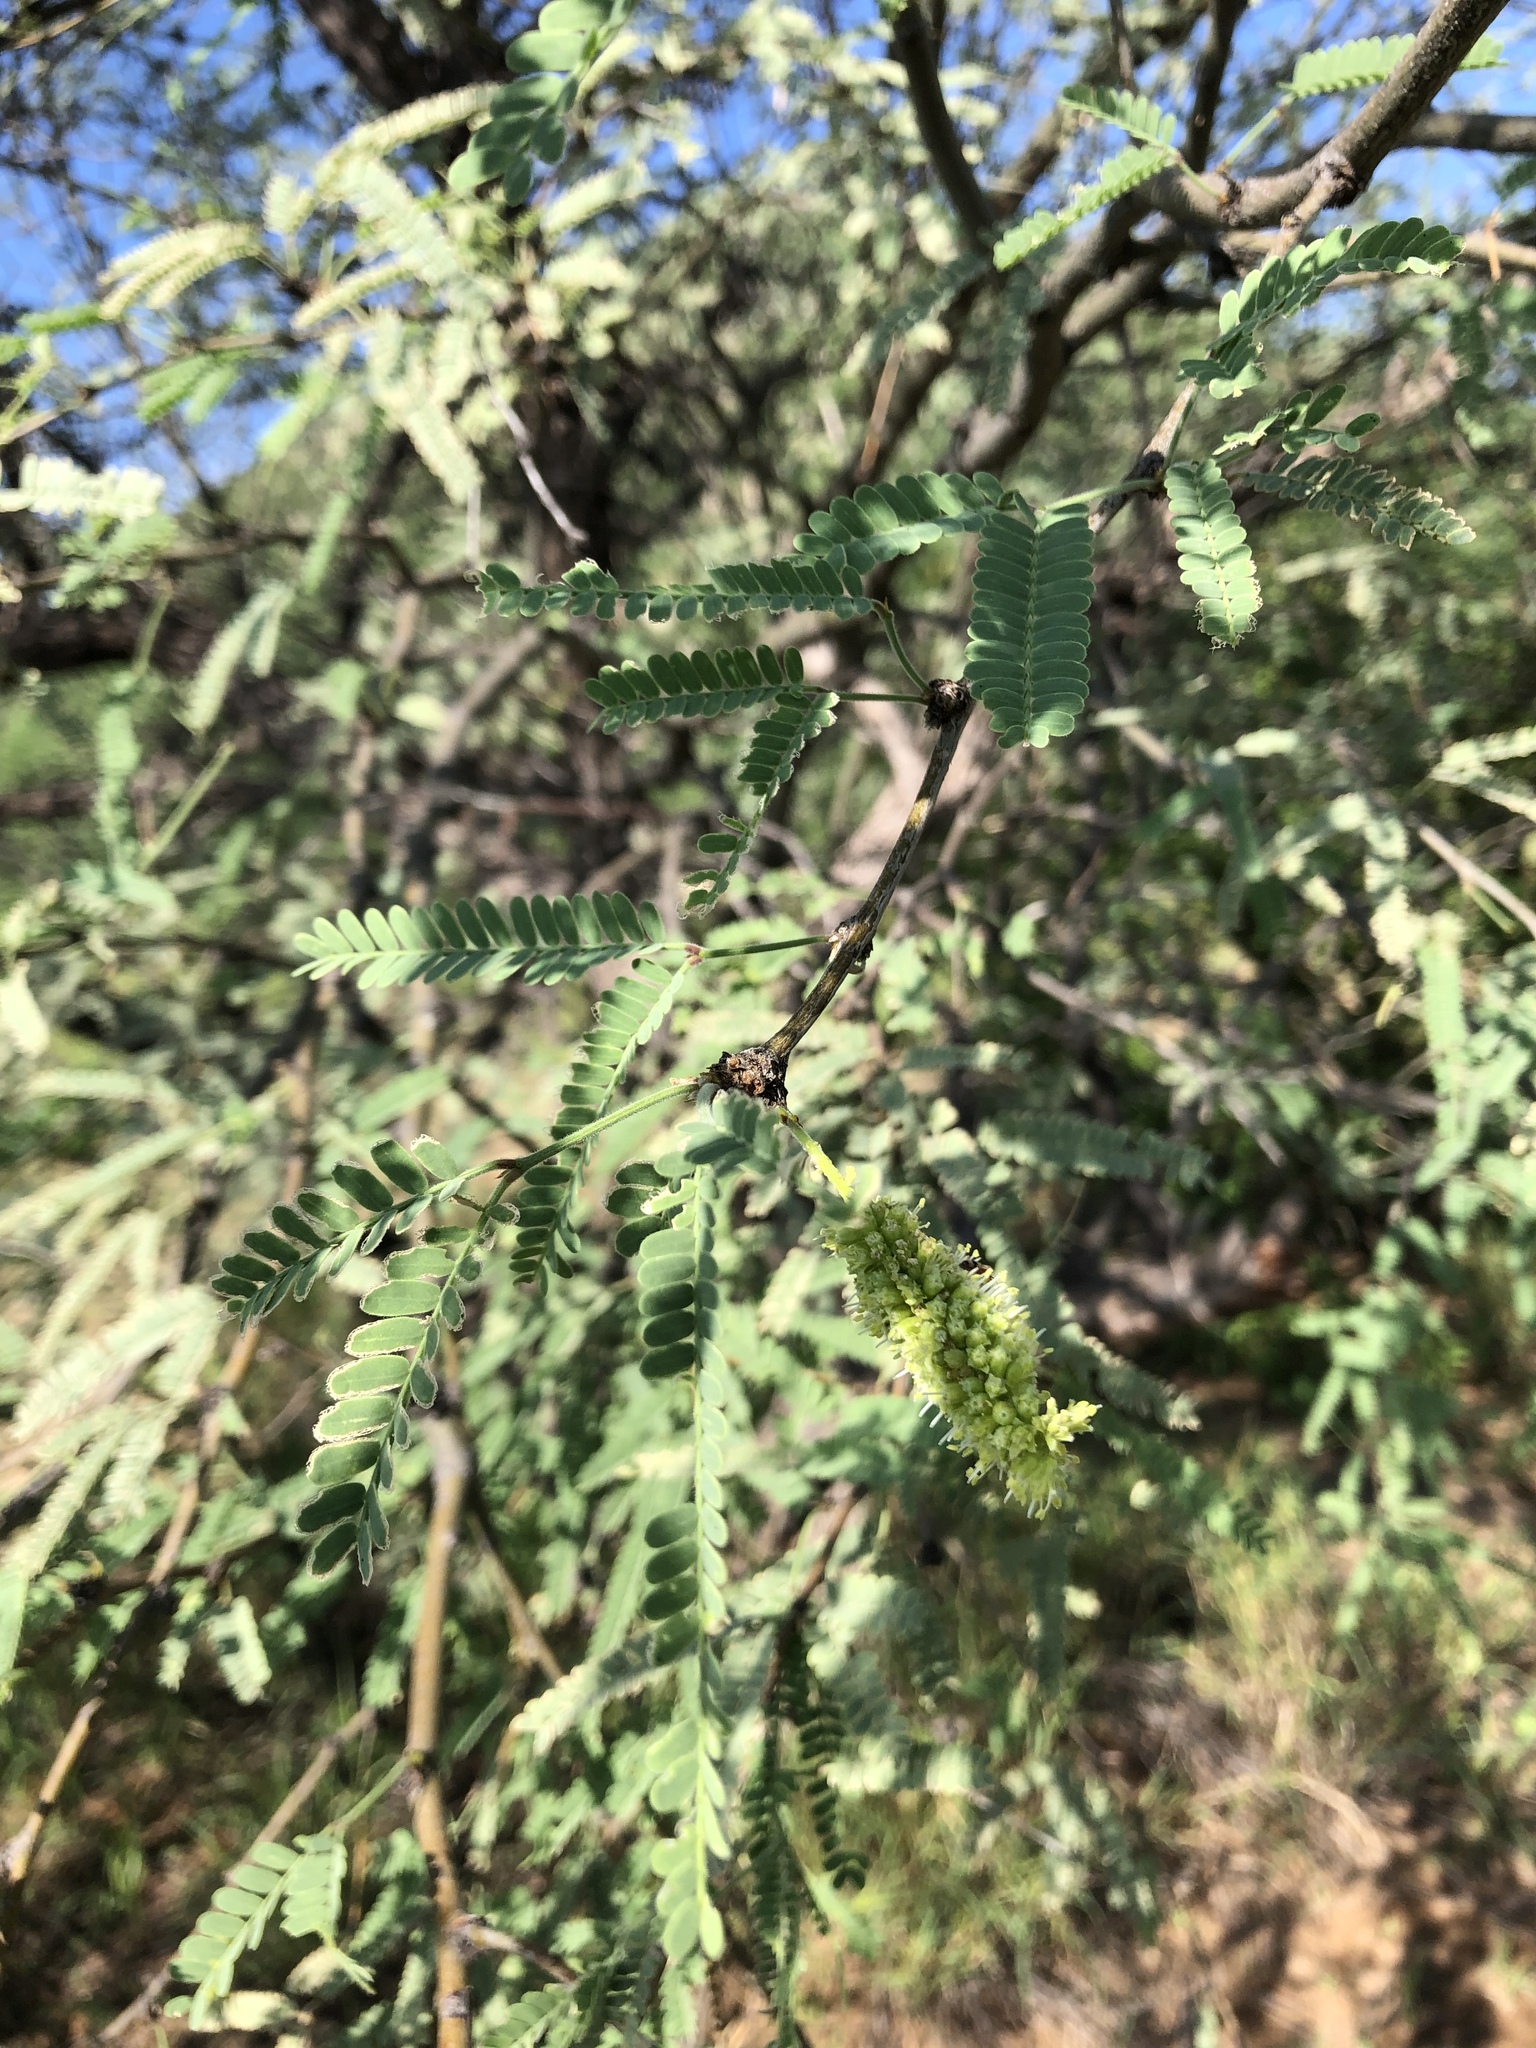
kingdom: Plantae
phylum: Tracheophyta
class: Magnoliopsida
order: Fabales
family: Fabaceae
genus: Prosopis
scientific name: Prosopis velutina
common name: Velvet mesquite
